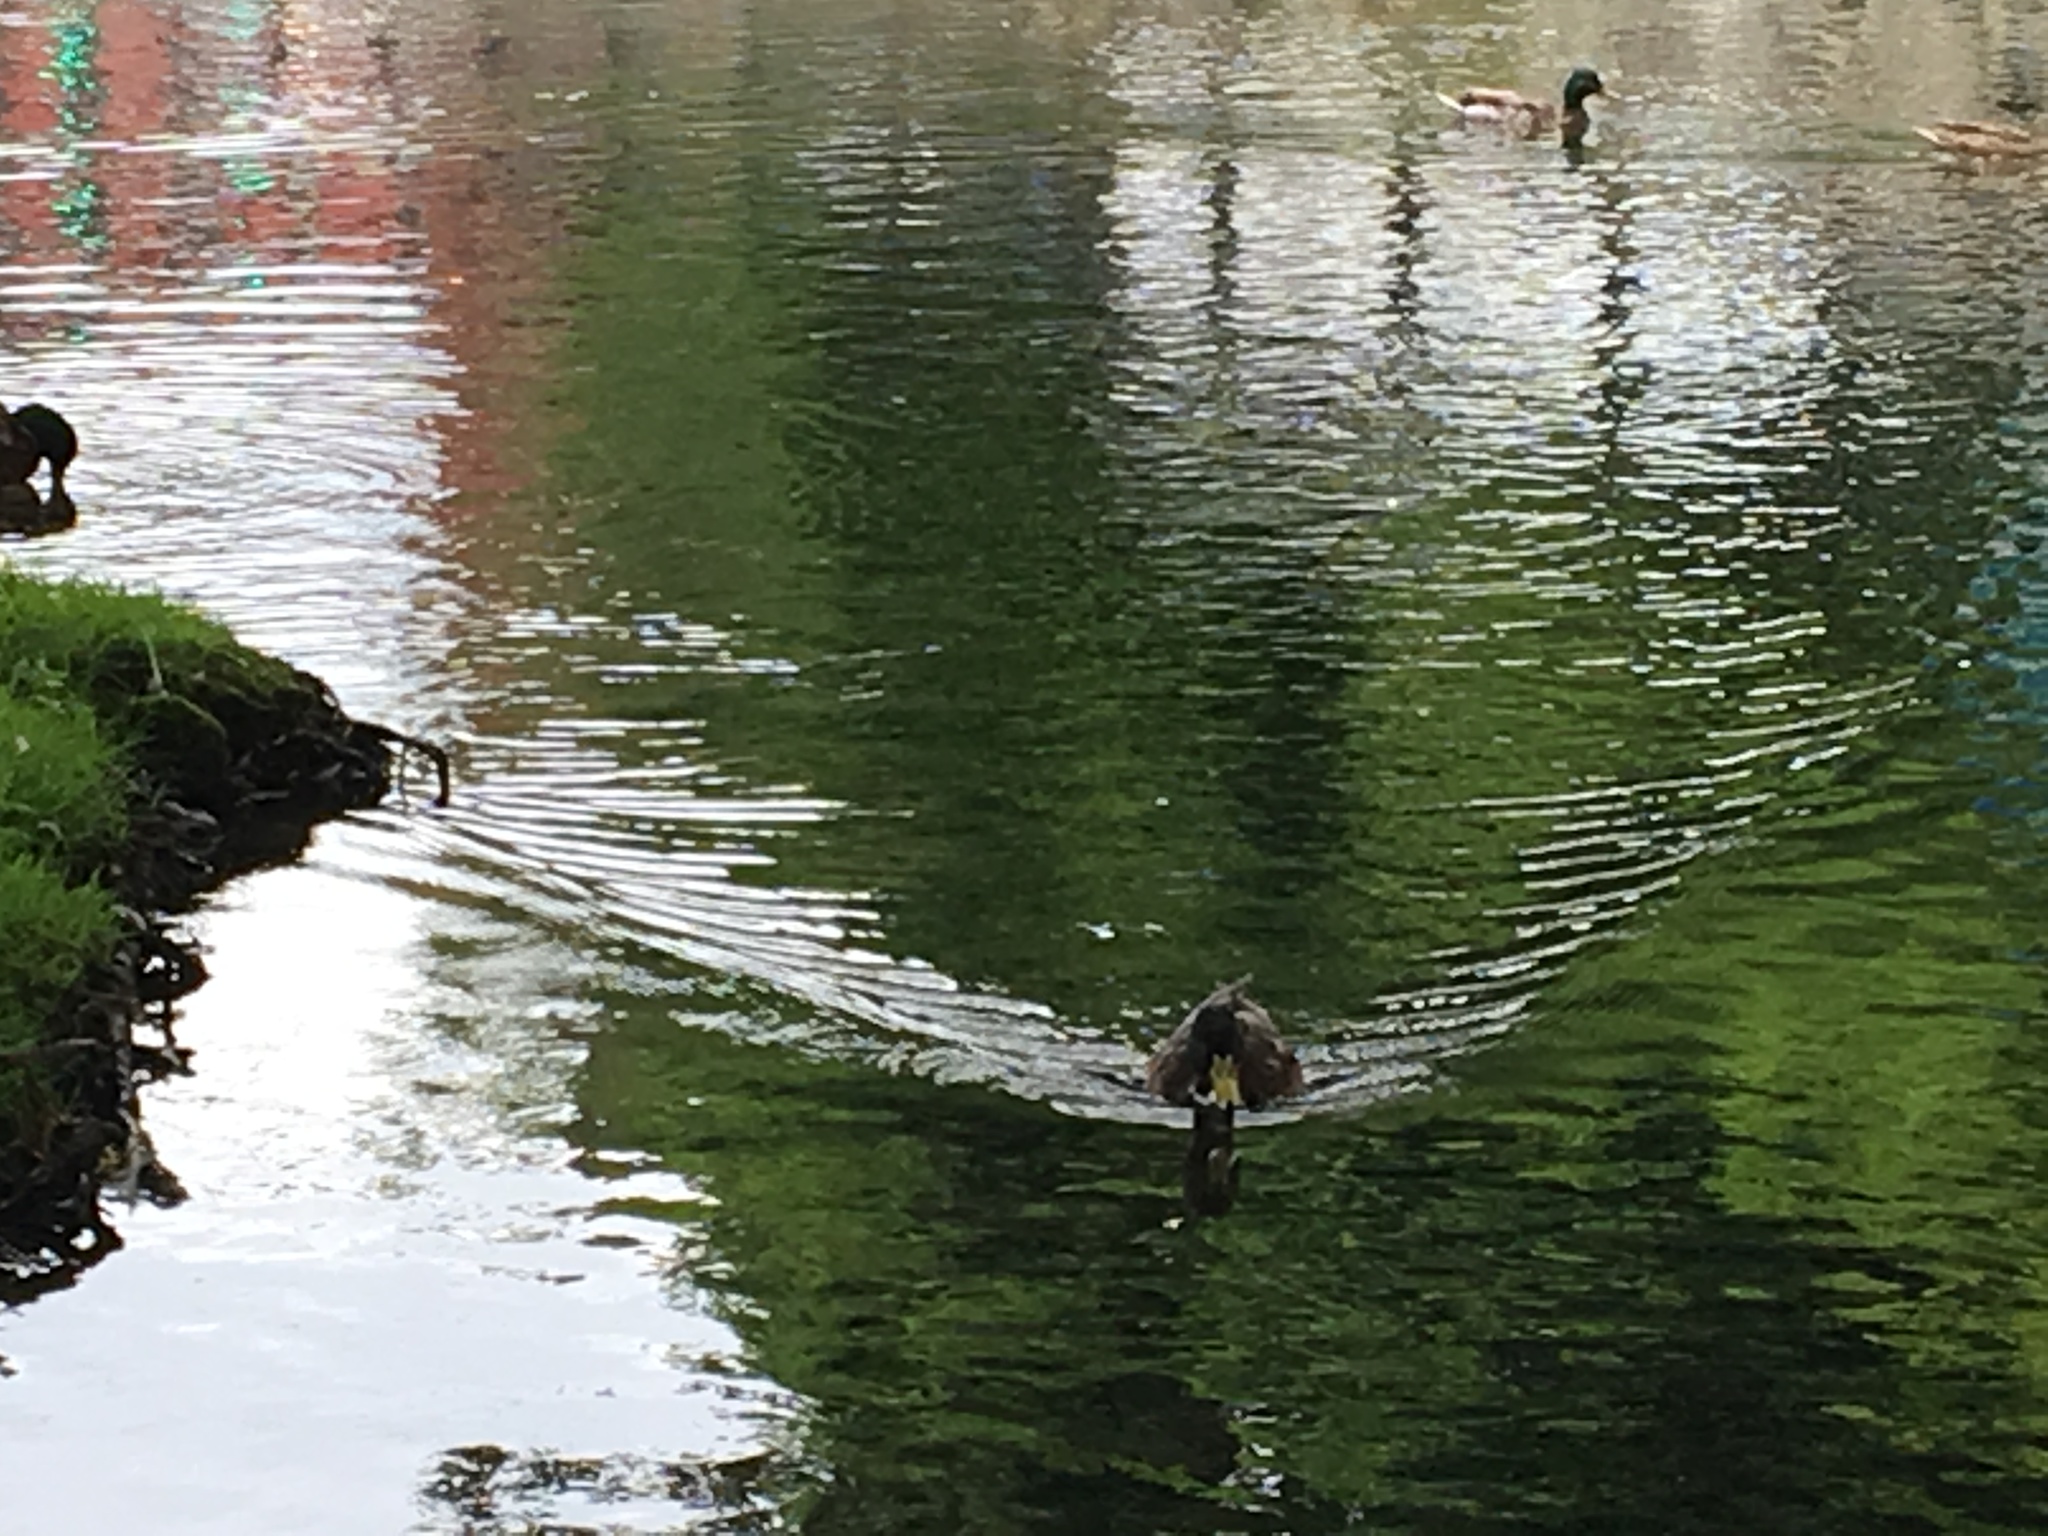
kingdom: Animalia
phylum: Chordata
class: Aves
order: Anseriformes
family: Anatidae
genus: Anas
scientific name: Anas platyrhynchos
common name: Mallard
